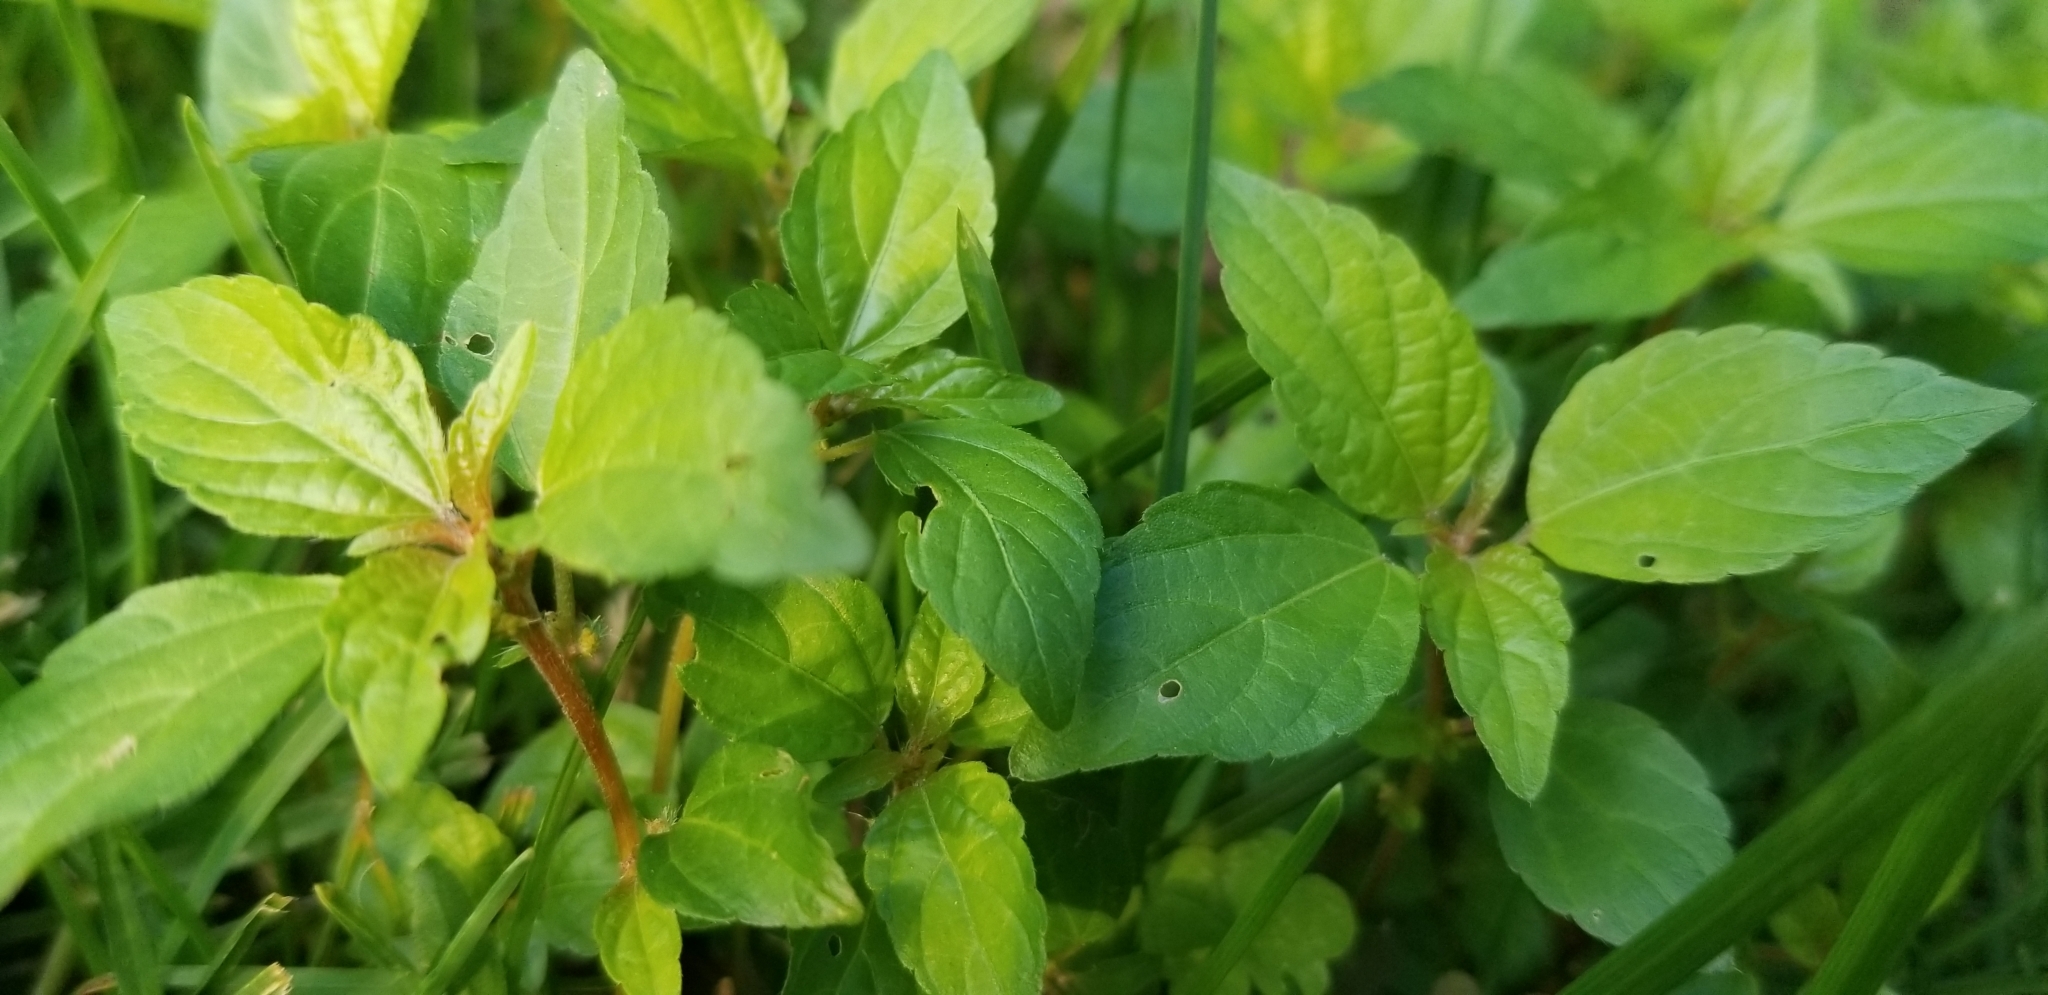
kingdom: Plantae
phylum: Tracheophyta
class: Magnoliopsida
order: Malpighiales
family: Euphorbiaceae
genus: Acalypha
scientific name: Acalypha rhomboidea
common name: Rhombic copperleaf
